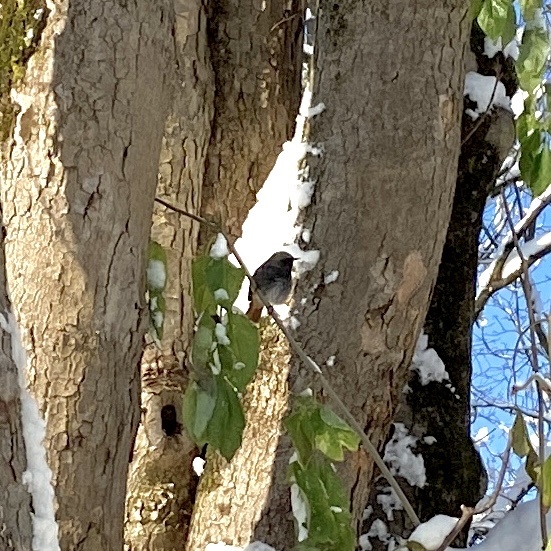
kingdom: Animalia
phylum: Chordata
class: Aves
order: Passeriformes
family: Muscicapidae
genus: Phoenicurus
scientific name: Phoenicurus ochruros
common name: Black redstart
